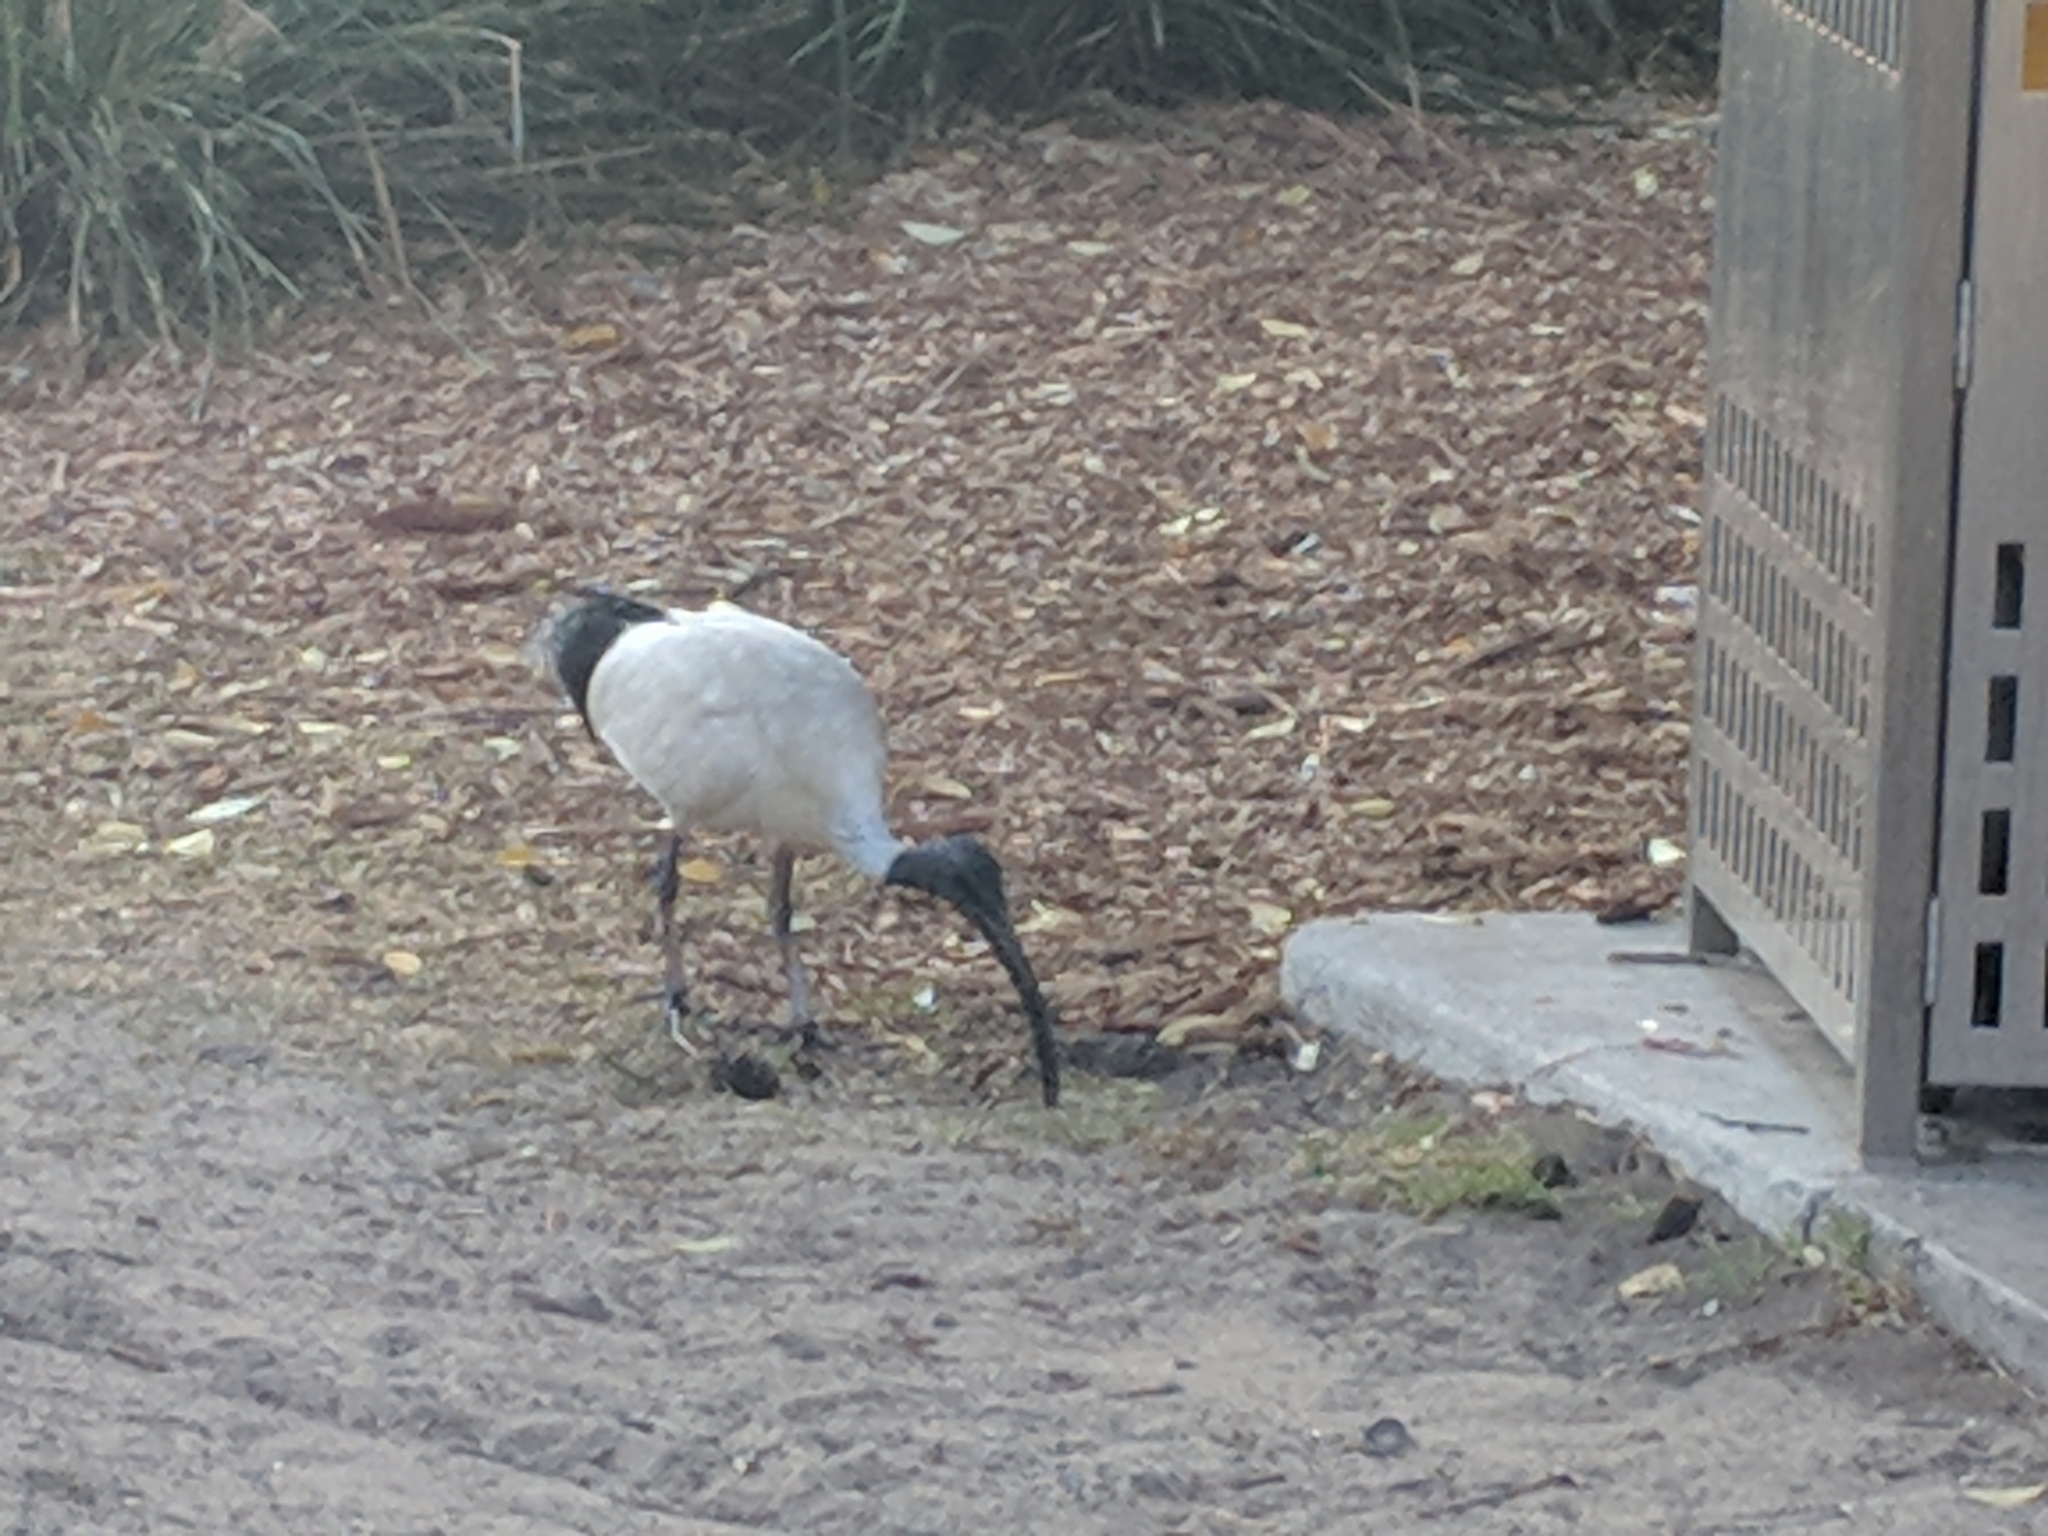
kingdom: Animalia
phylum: Chordata
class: Aves
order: Pelecaniformes
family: Threskiornithidae
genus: Threskiornis
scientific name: Threskiornis molucca
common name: Australian white ibis
